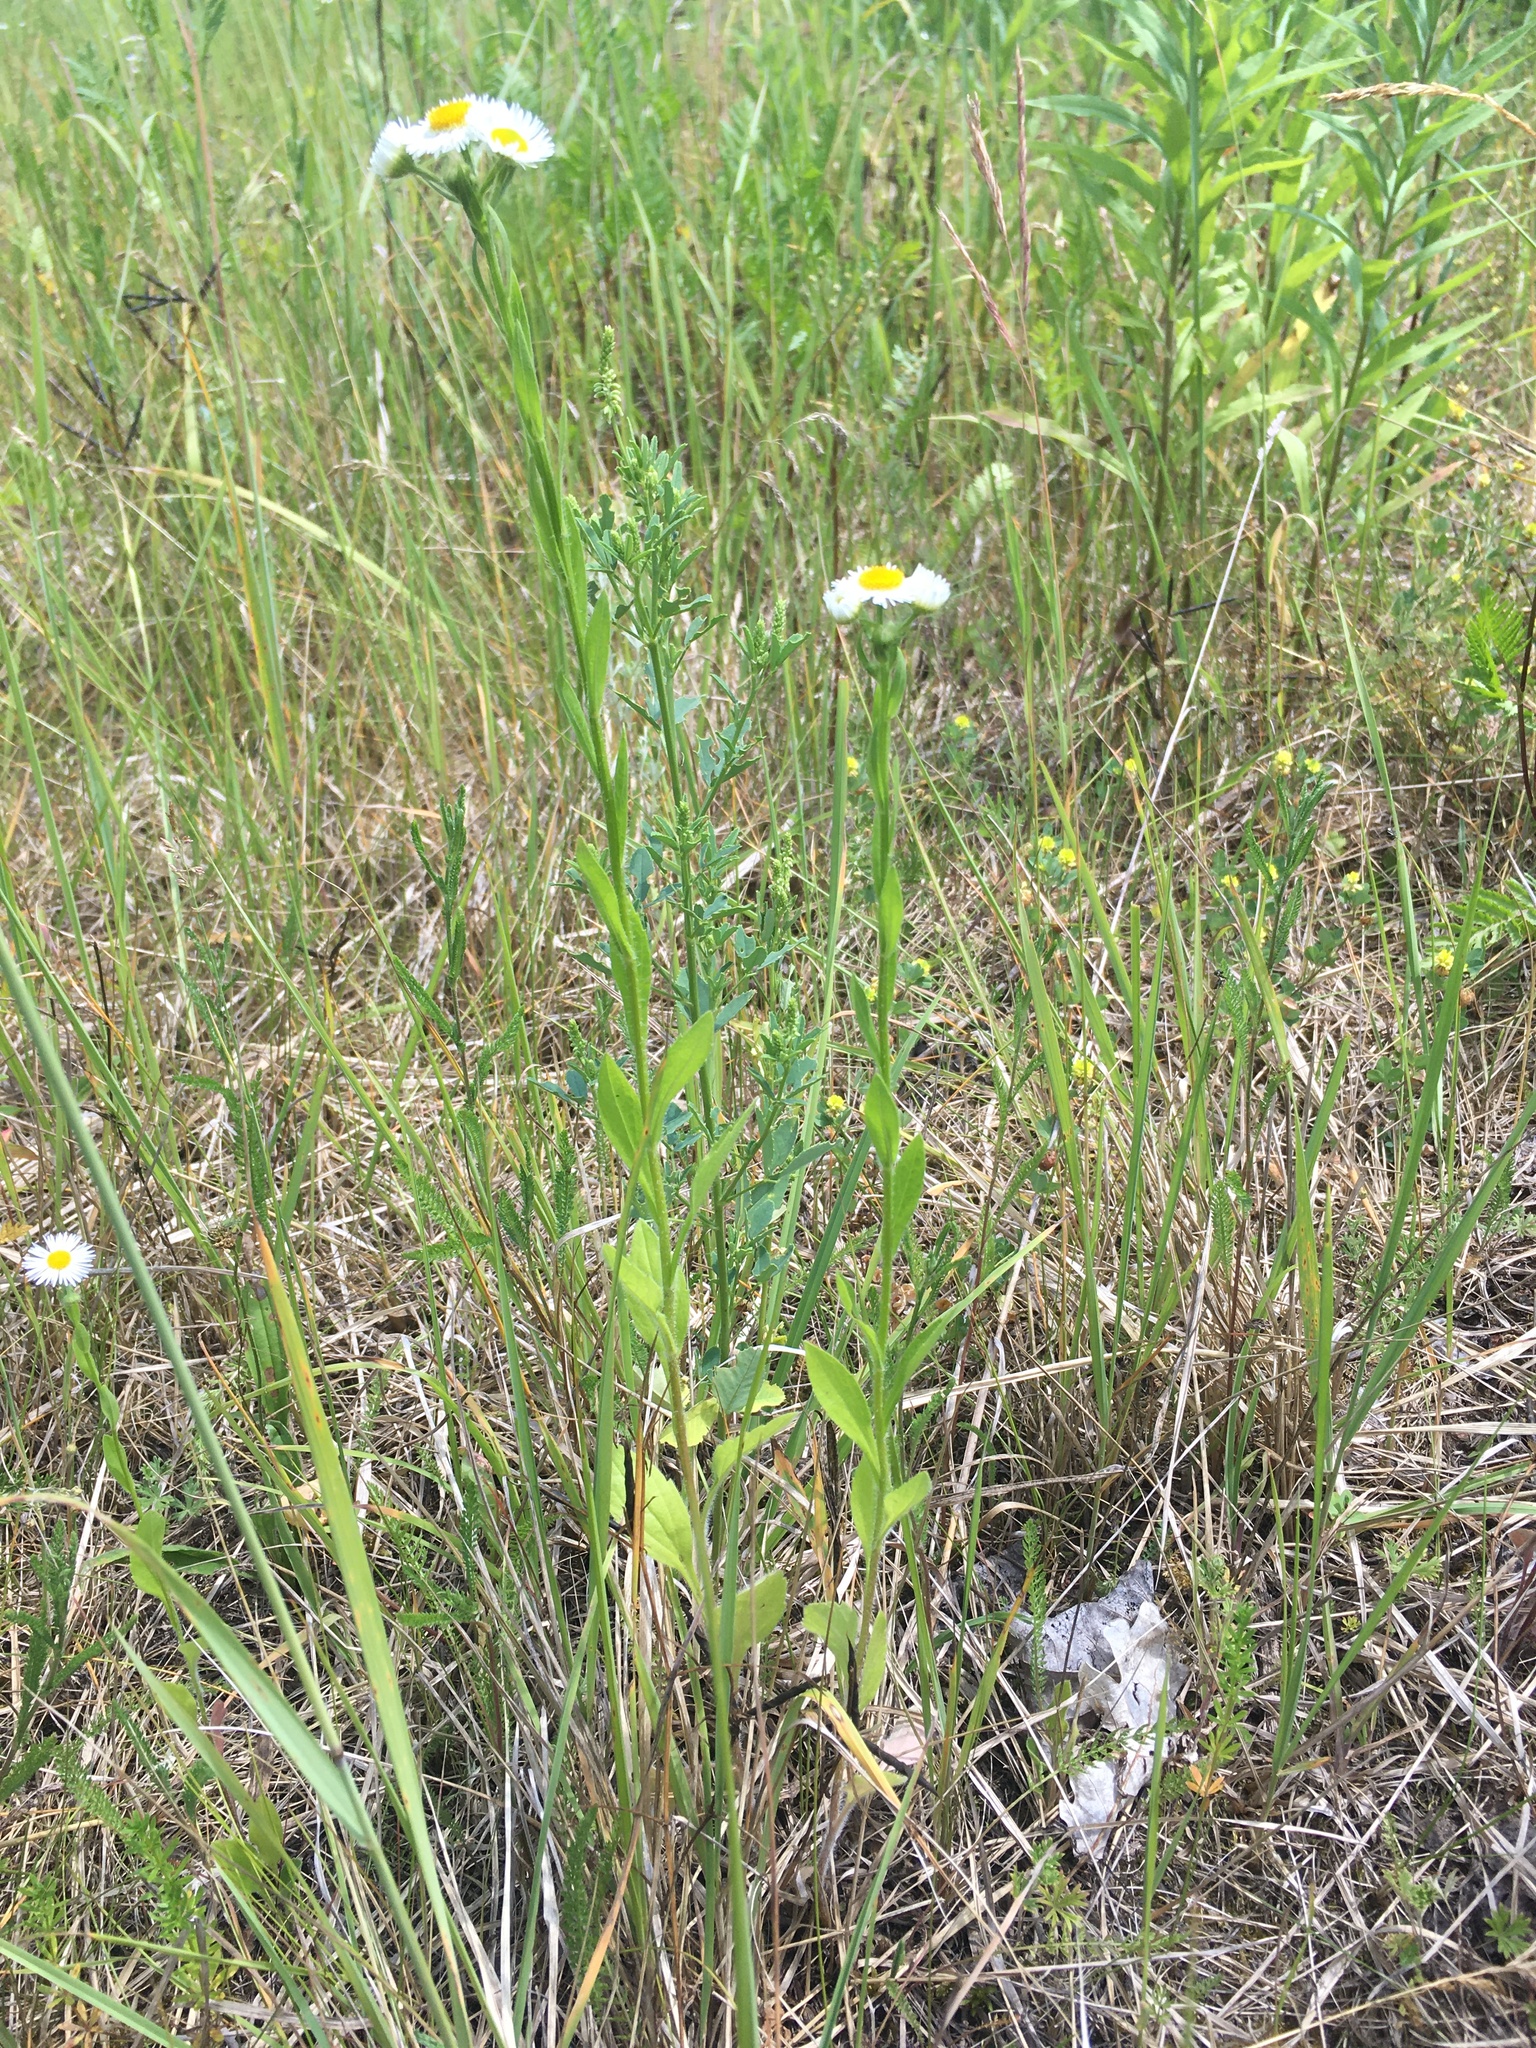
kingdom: Plantae
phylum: Tracheophyta
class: Magnoliopsida
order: Asterales
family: Asteraceae
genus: Erigeron
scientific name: Erigeron annuus
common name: Tall fleabane
